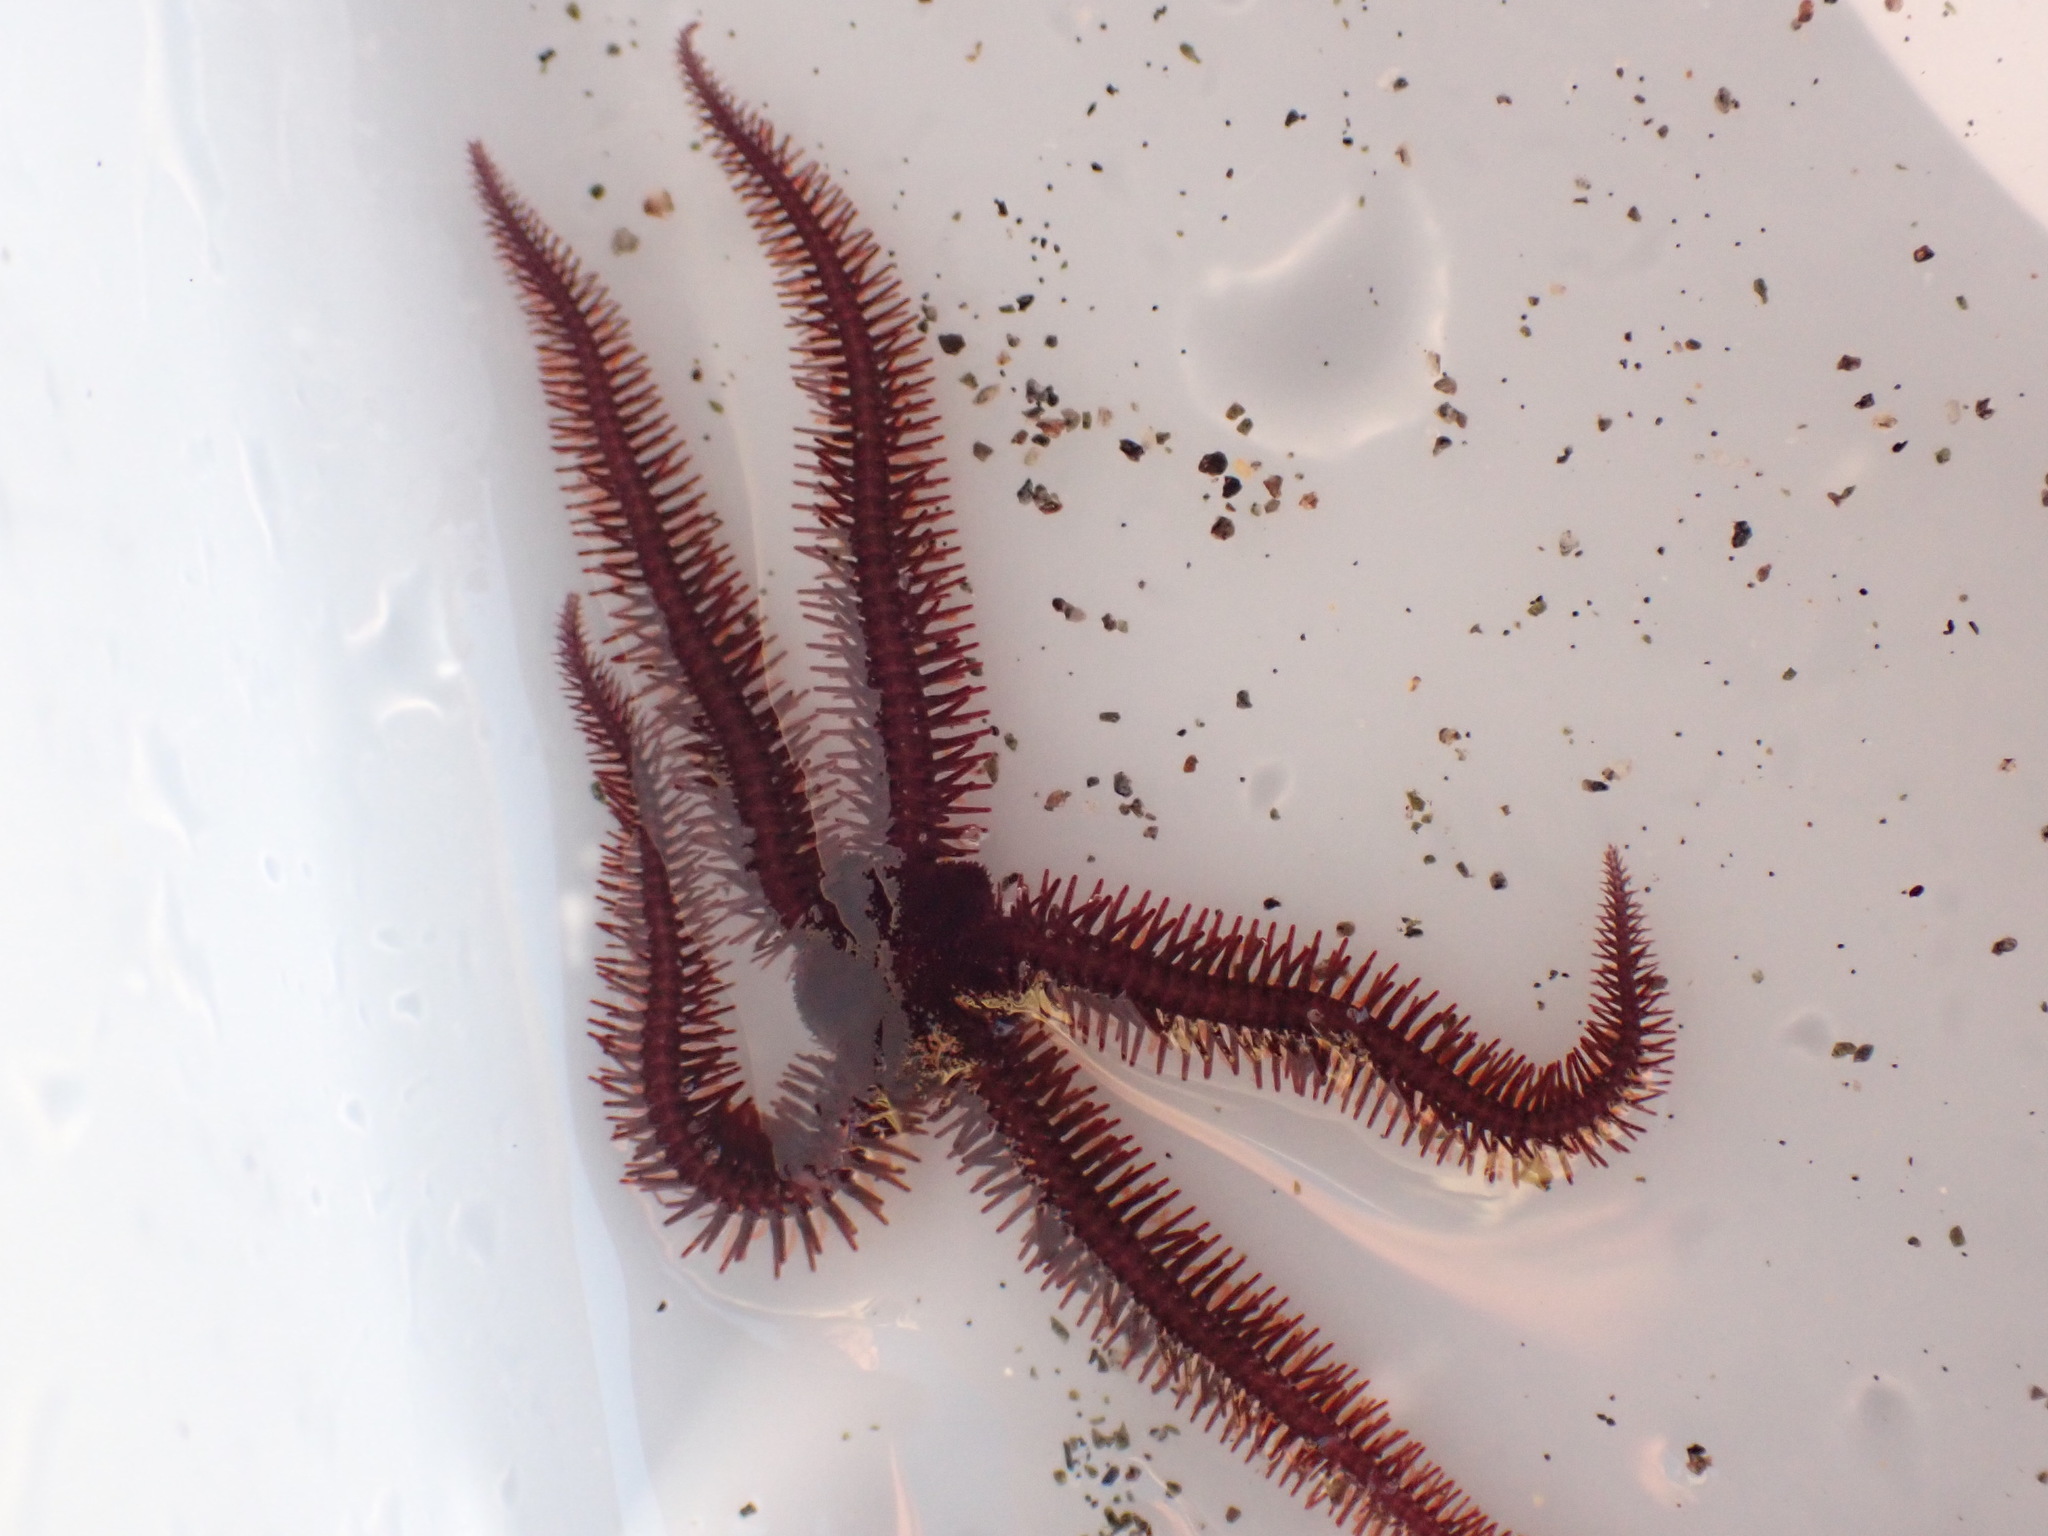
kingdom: Animalia
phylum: Echinodermata
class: Ophiuroidea
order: Ophiacanthida
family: Ophiopteridae
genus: Ophiopteris
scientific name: Ophiopteris antipodum
